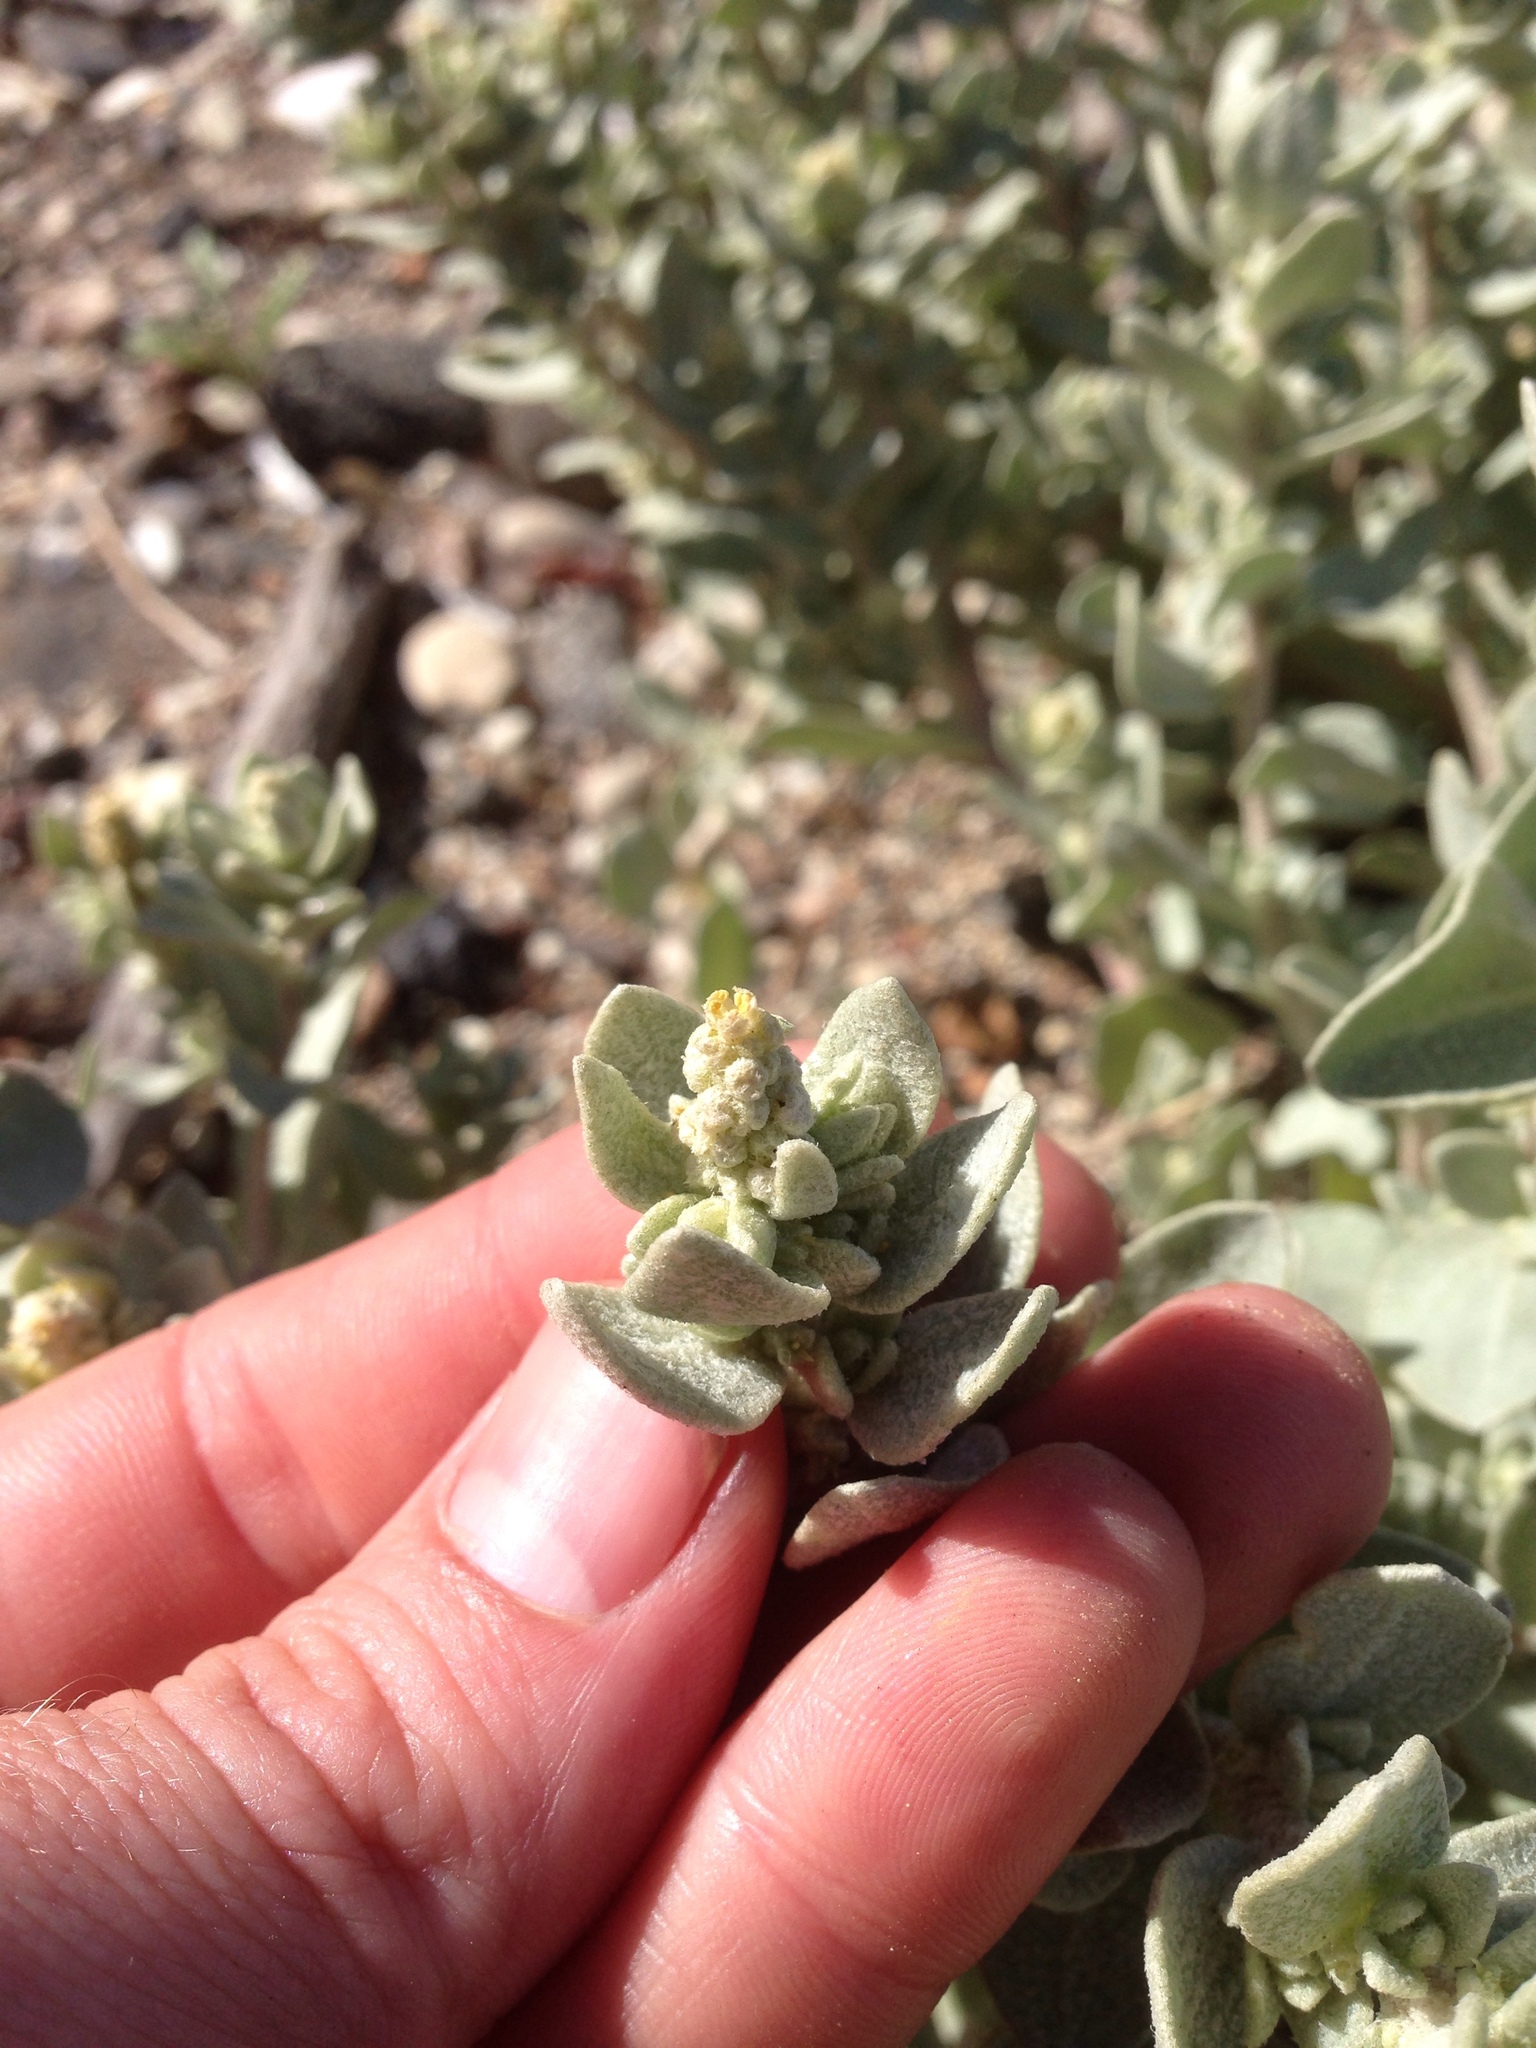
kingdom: Plantae
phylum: Tracheophyta
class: Magnoliopsida
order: Caryophyllales
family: Amaranthaceae
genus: Atriplex
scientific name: Atriplex leucophylla
